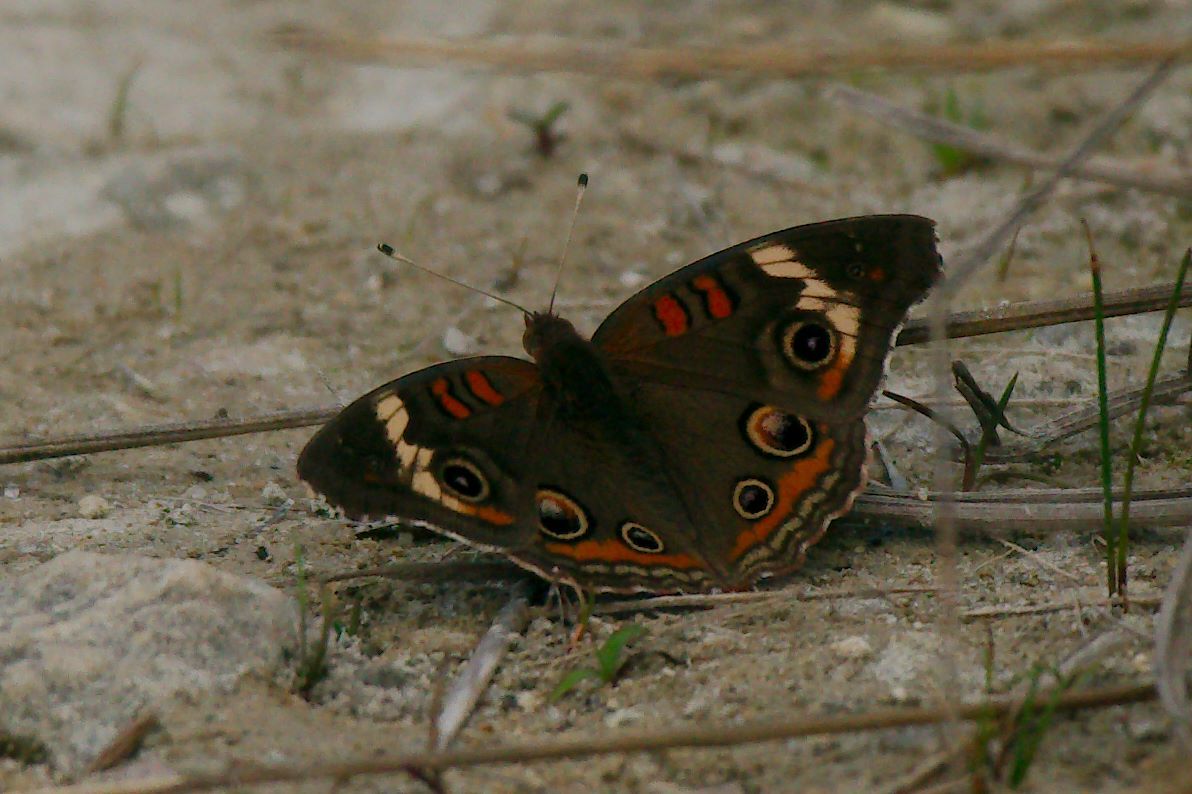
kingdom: Animalia
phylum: Arthropoda
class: Insecta
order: Lepidoptera
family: Nymphalidae
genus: Junonia
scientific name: Junonia coenia
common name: Common buckeye
